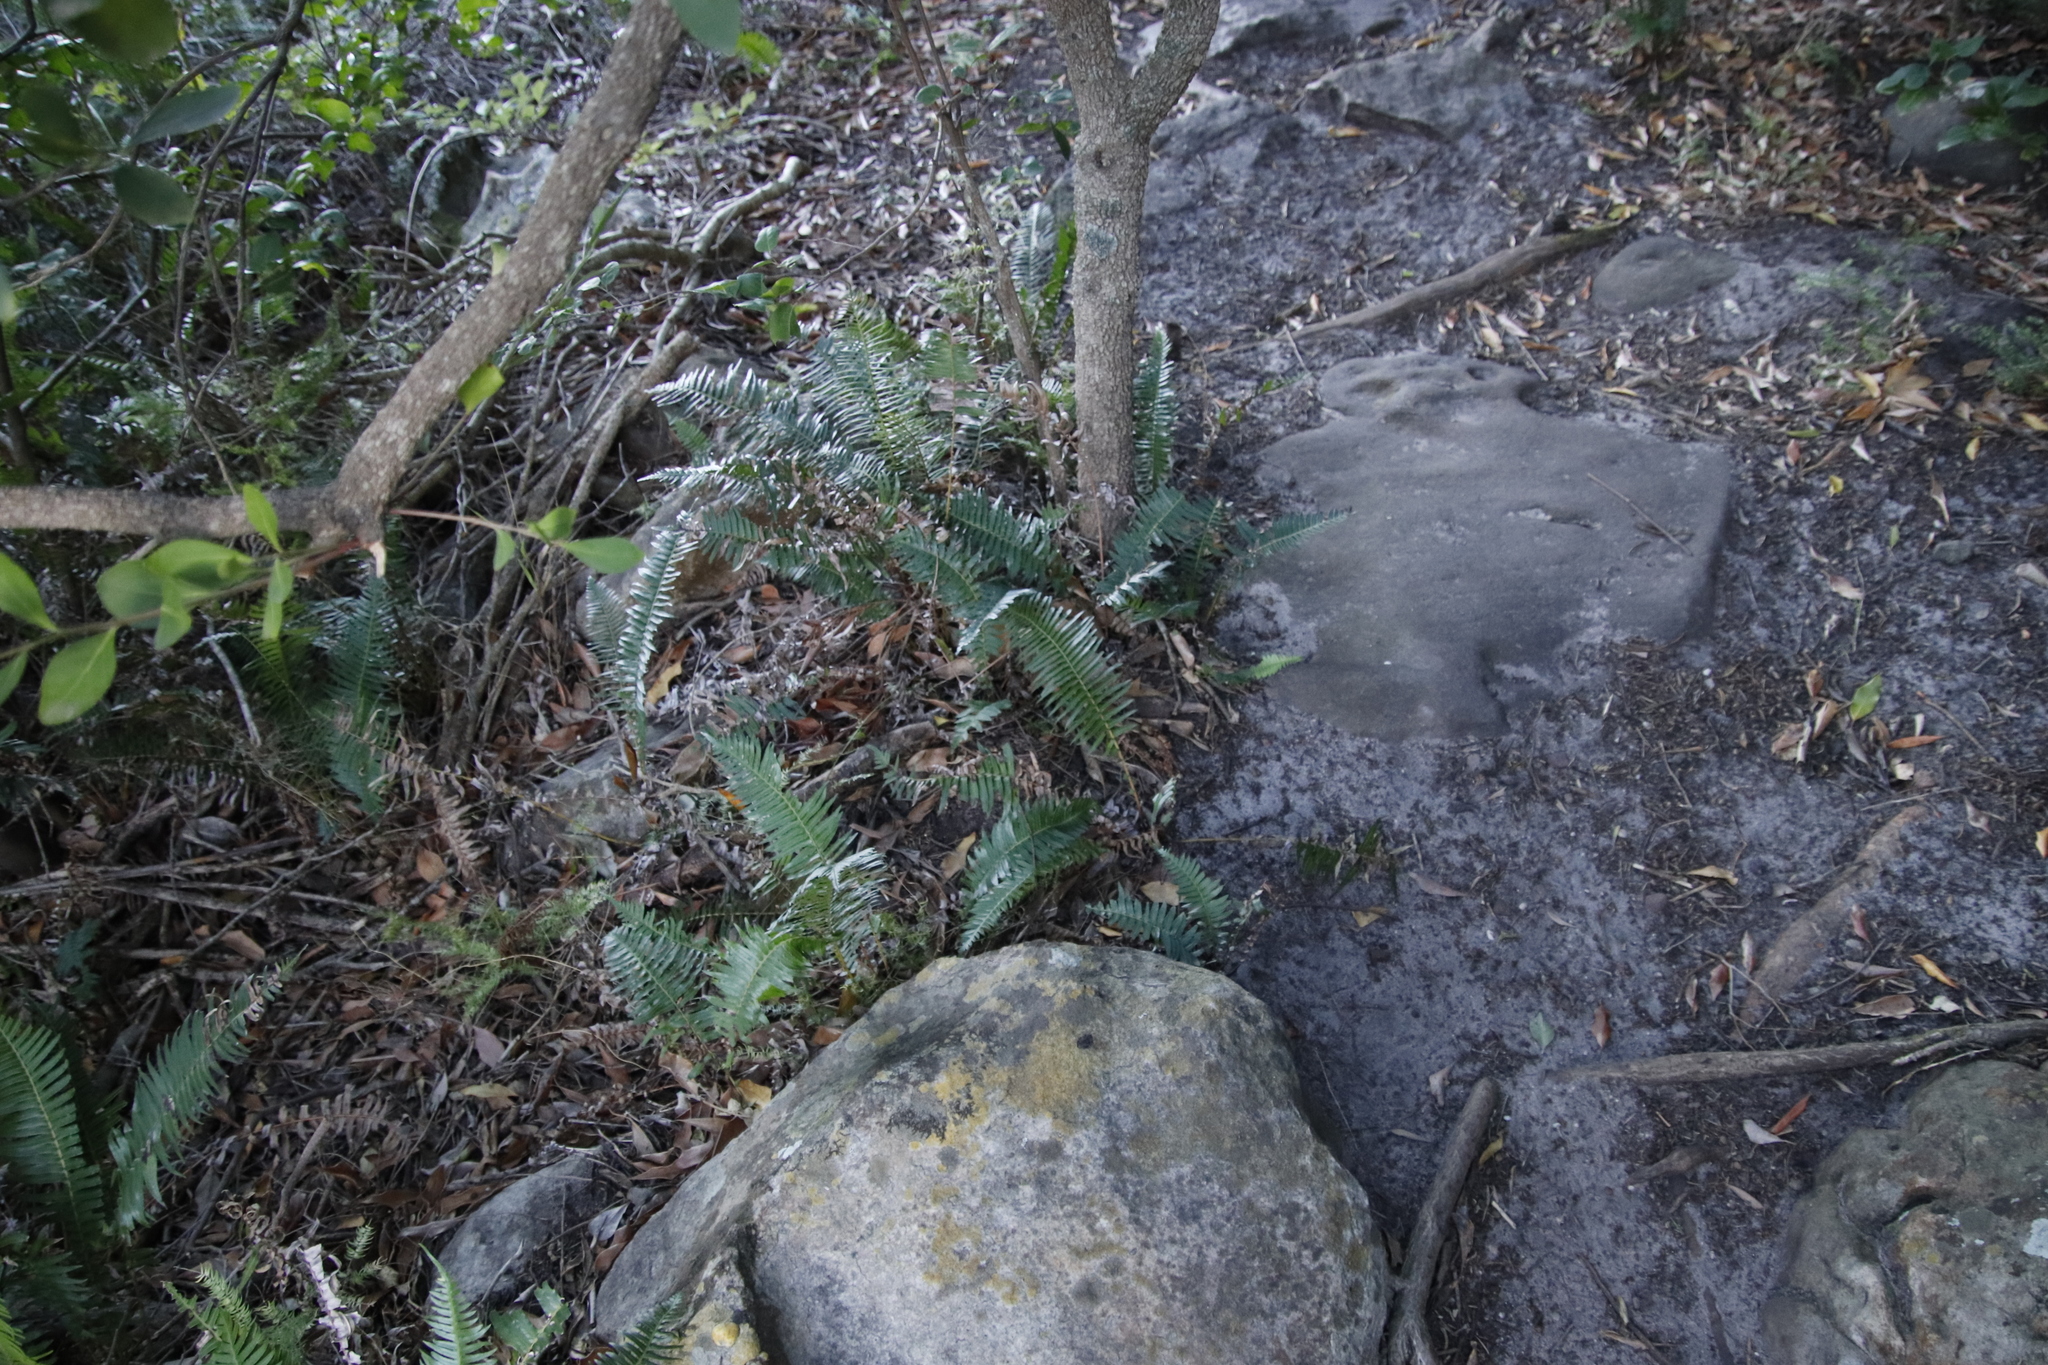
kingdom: Plantae
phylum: Tracheophyta
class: Polypodiopsida
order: Polypodiales
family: Blechnaceae
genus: Blechnum
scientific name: Blechnum punctulatum
